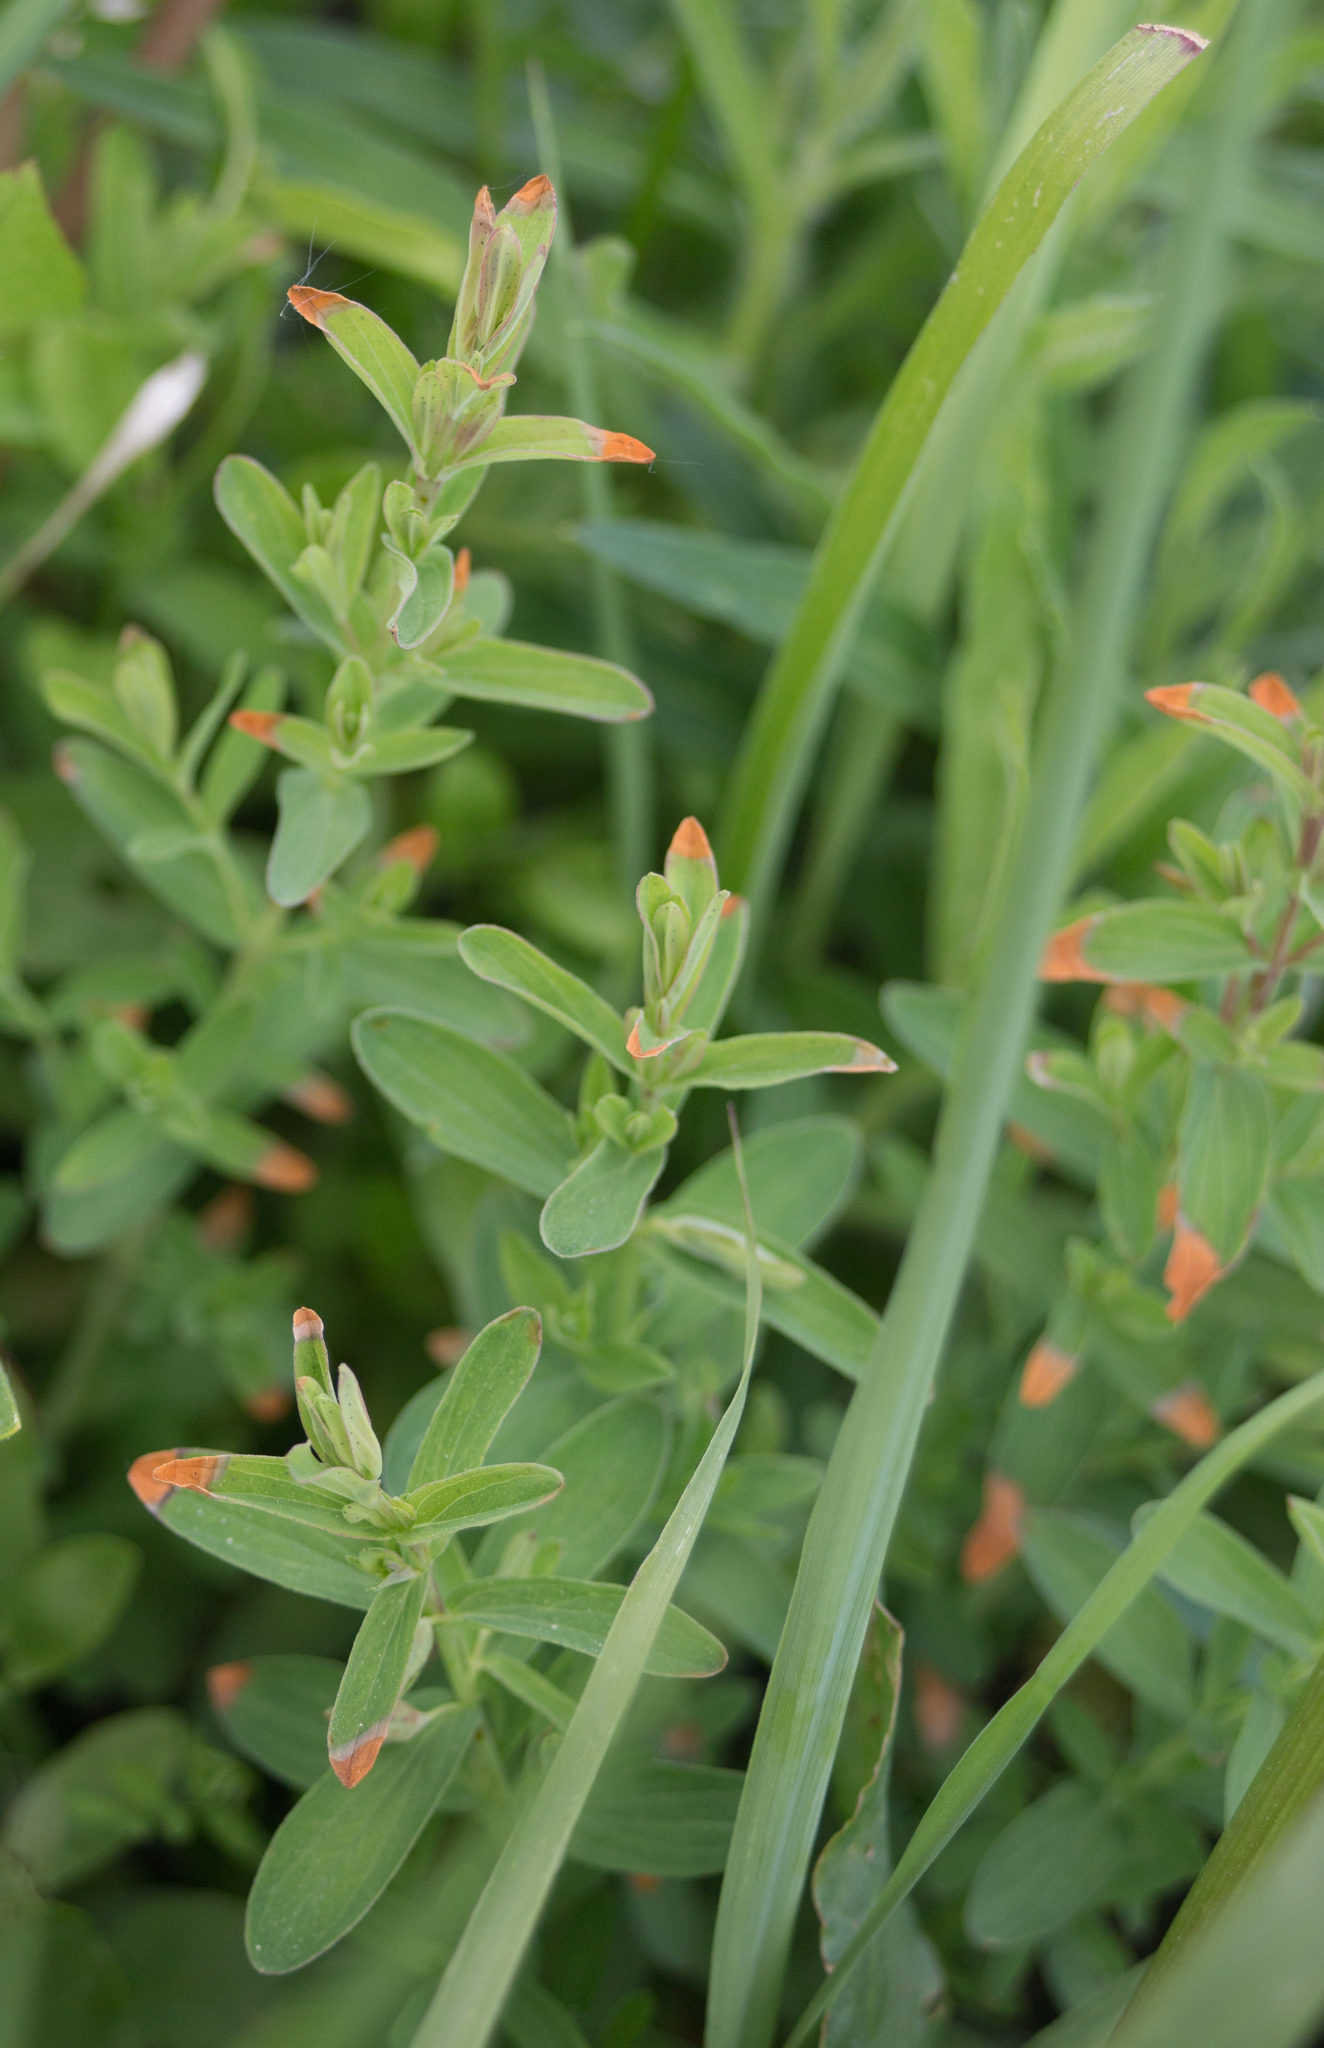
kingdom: Plantae
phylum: Tracheophyta
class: Magnoliopsida
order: Malpighiales
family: Hypericaceae
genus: Hypericum
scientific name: Hypericum perforatum
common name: Common st. johnswort
